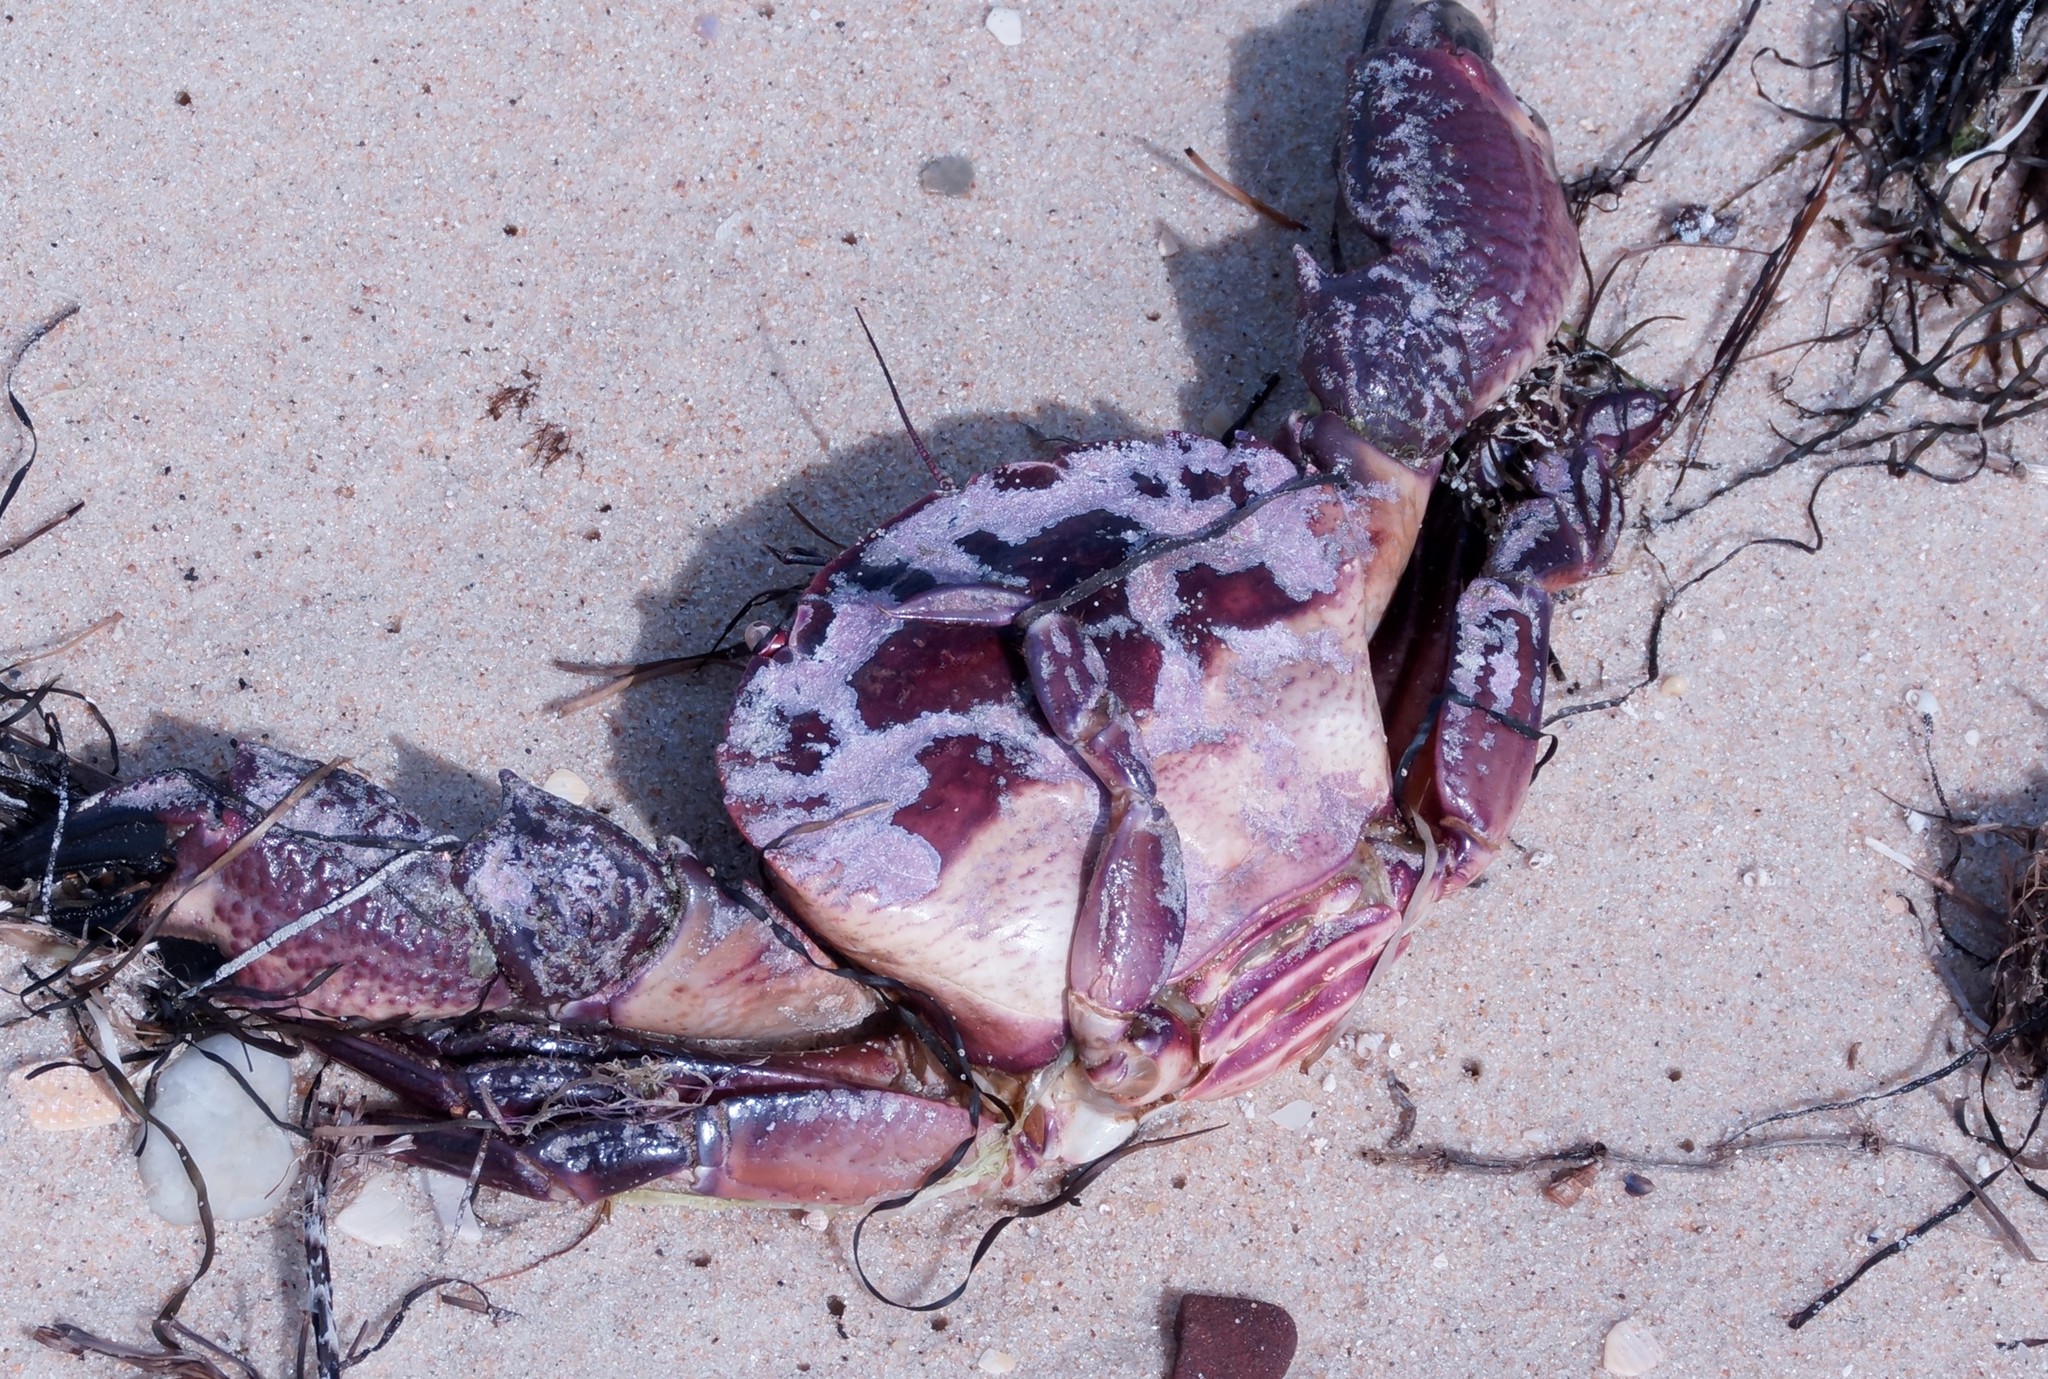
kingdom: Animalia
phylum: Arthropoda
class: Malacostraca
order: Decapoda
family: Geryonidae
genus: Nectocarcinus
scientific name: Nectocarcinus integrifrons
